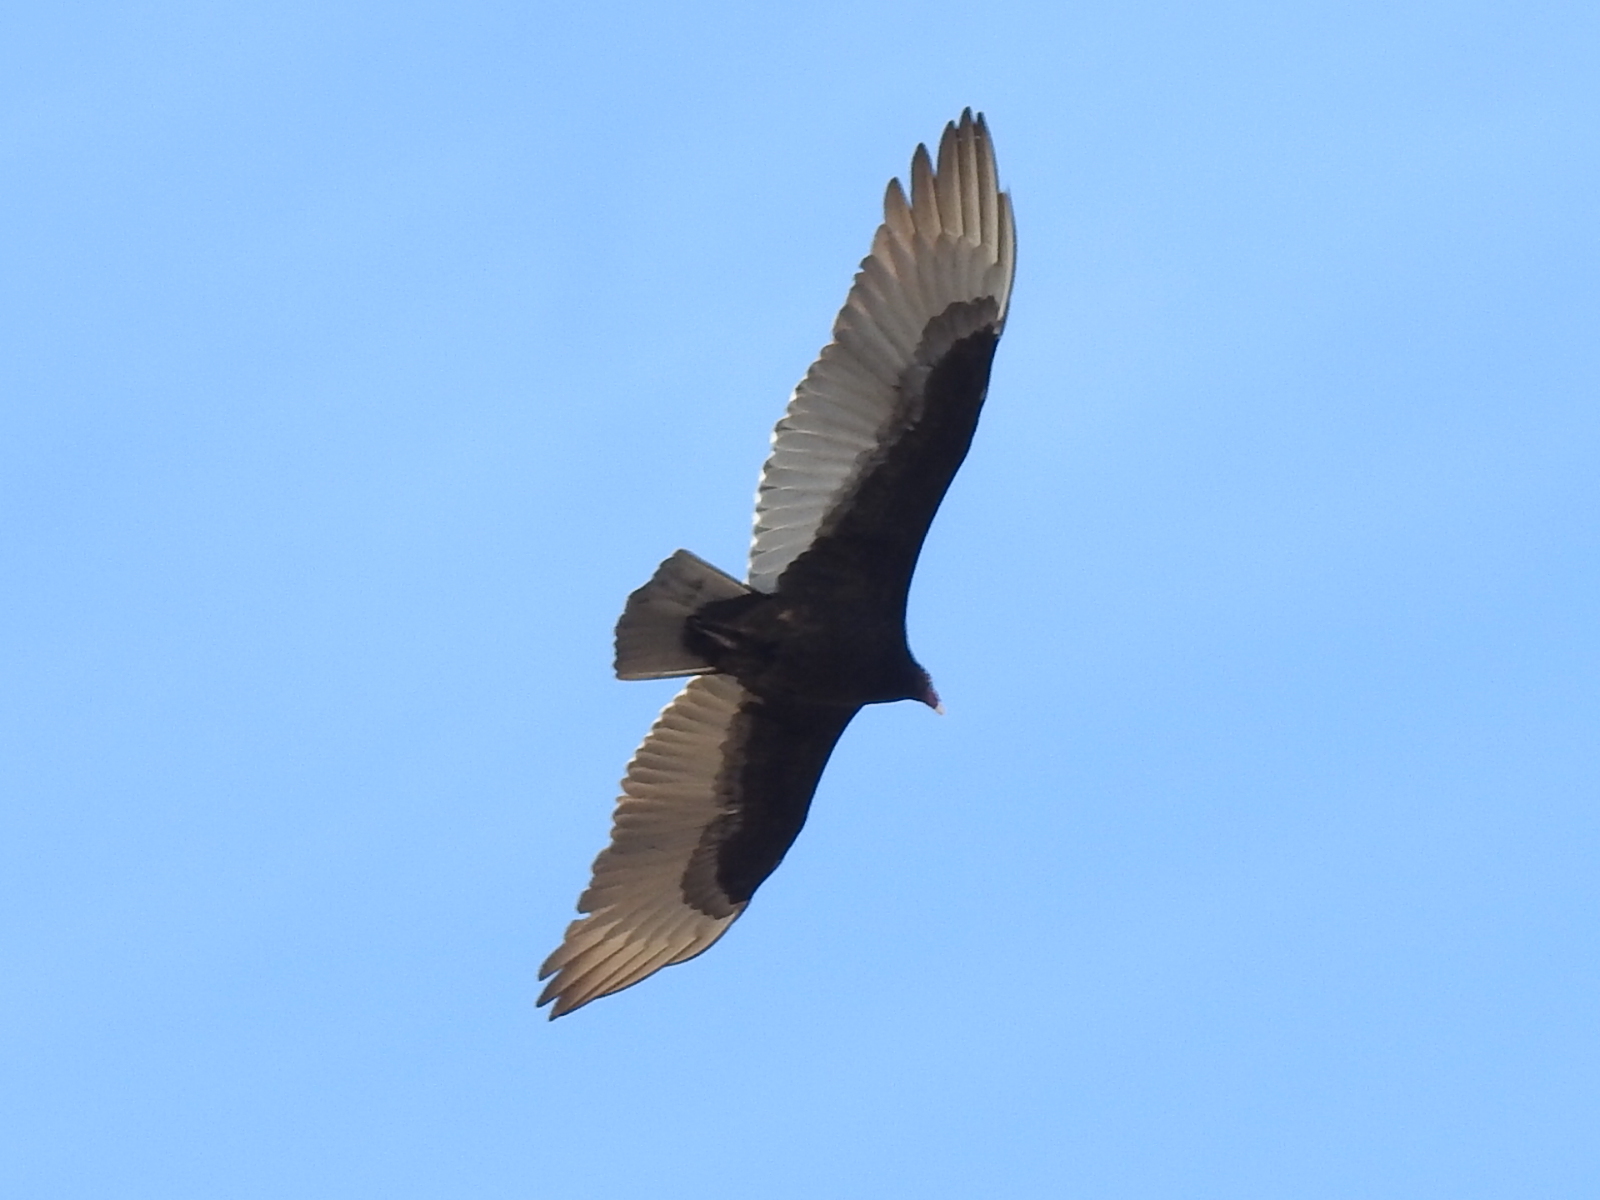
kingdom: Animalia
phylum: Chordata
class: Aves
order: Accipitriformes
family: Cathartidae
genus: Cathartes
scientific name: Cathartes aura
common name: Turkey vulture
